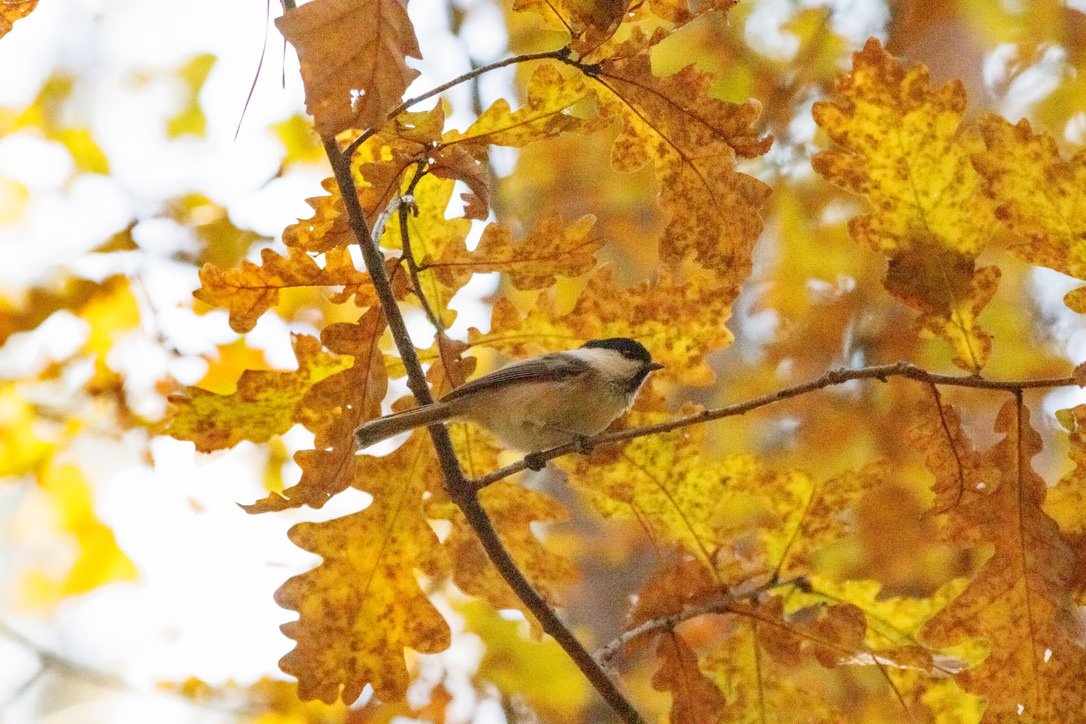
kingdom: Animalia
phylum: Chordata
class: Aves
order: Passeriformes
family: Paridae
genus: Poecile
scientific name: Poecile montanus
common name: Willow tit
